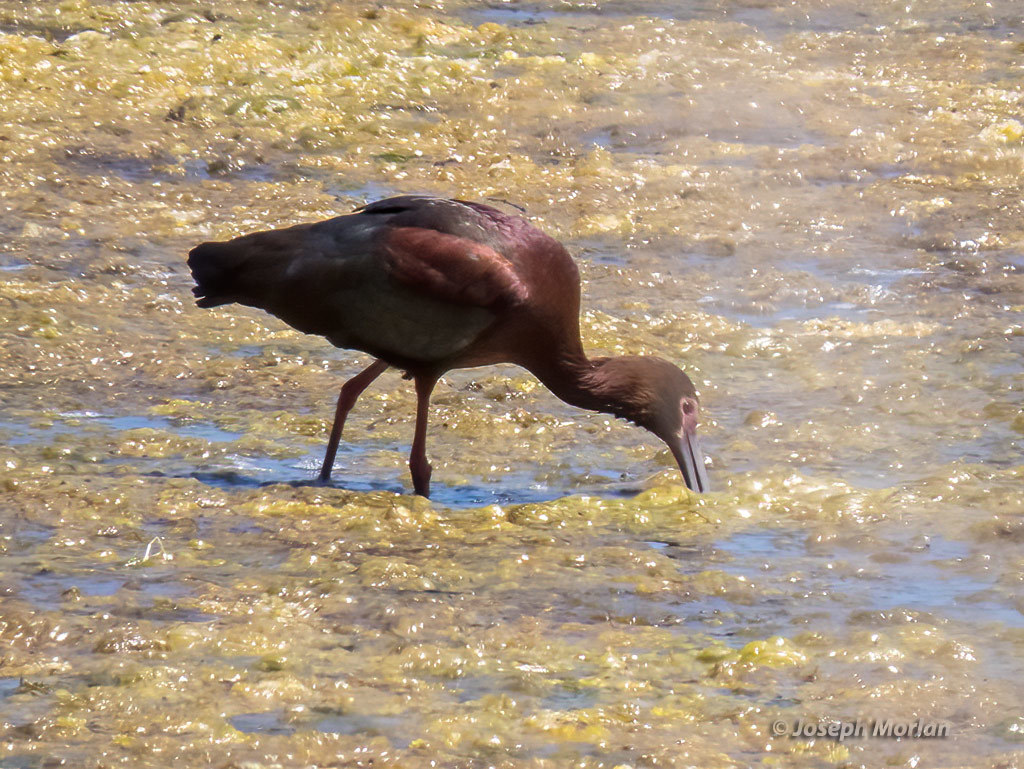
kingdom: Animalia
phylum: Chordata
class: Aves
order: Pelecaniformes
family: Threskiornithidae
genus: Plegadis
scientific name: Plegadis chihi
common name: White-faced ibis
